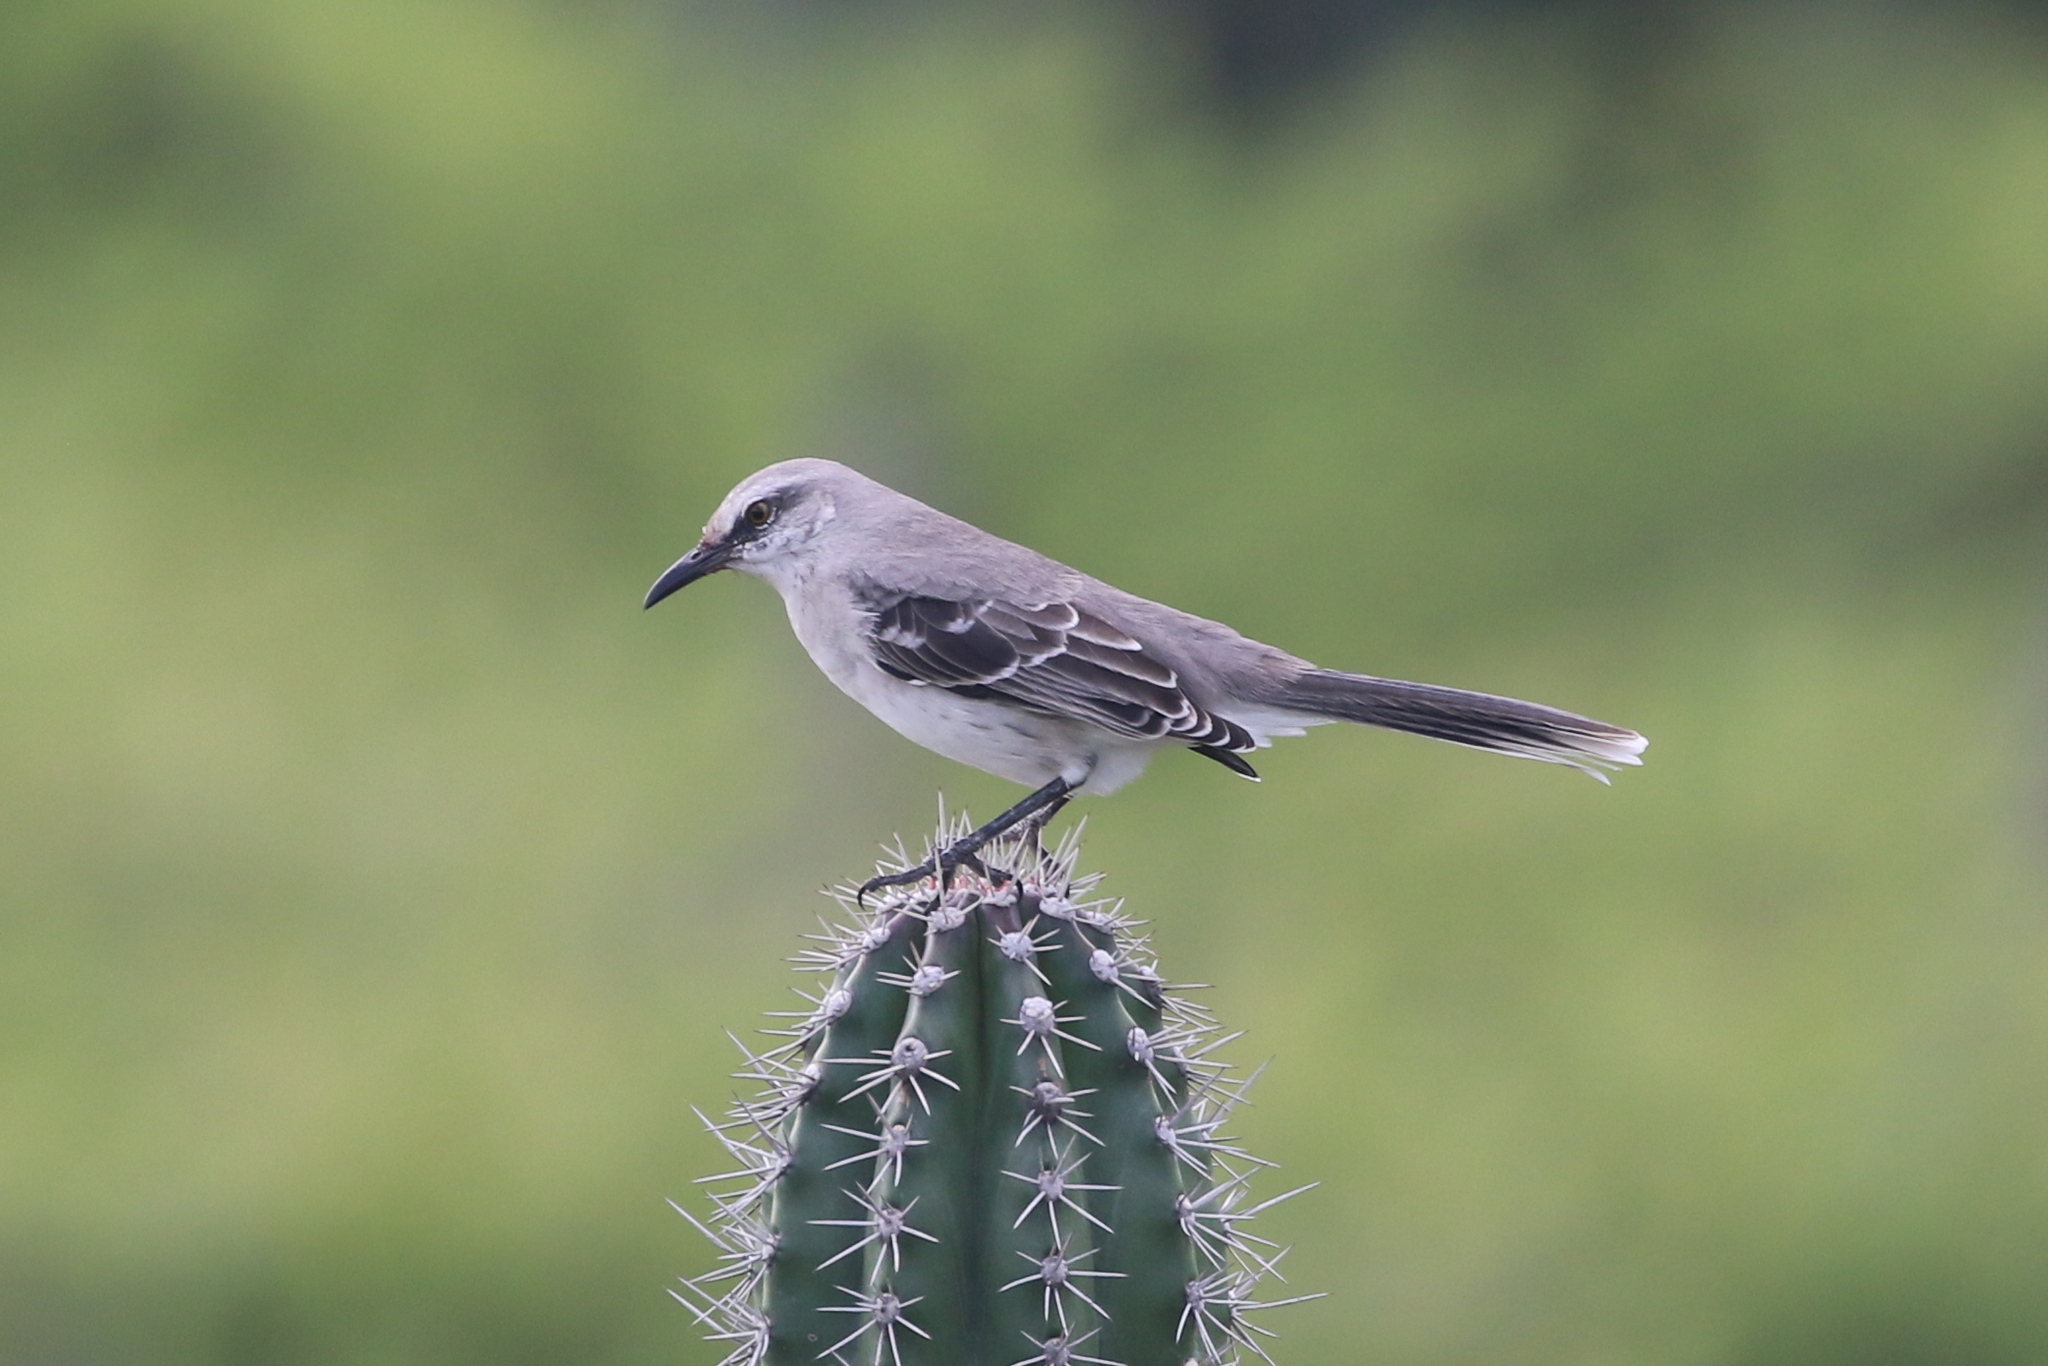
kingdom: Animalia
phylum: Chordata
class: Aves
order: Passeriformes
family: Mimidae
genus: Mimus
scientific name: Mimus gilvus
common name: Tropical mockingbird
